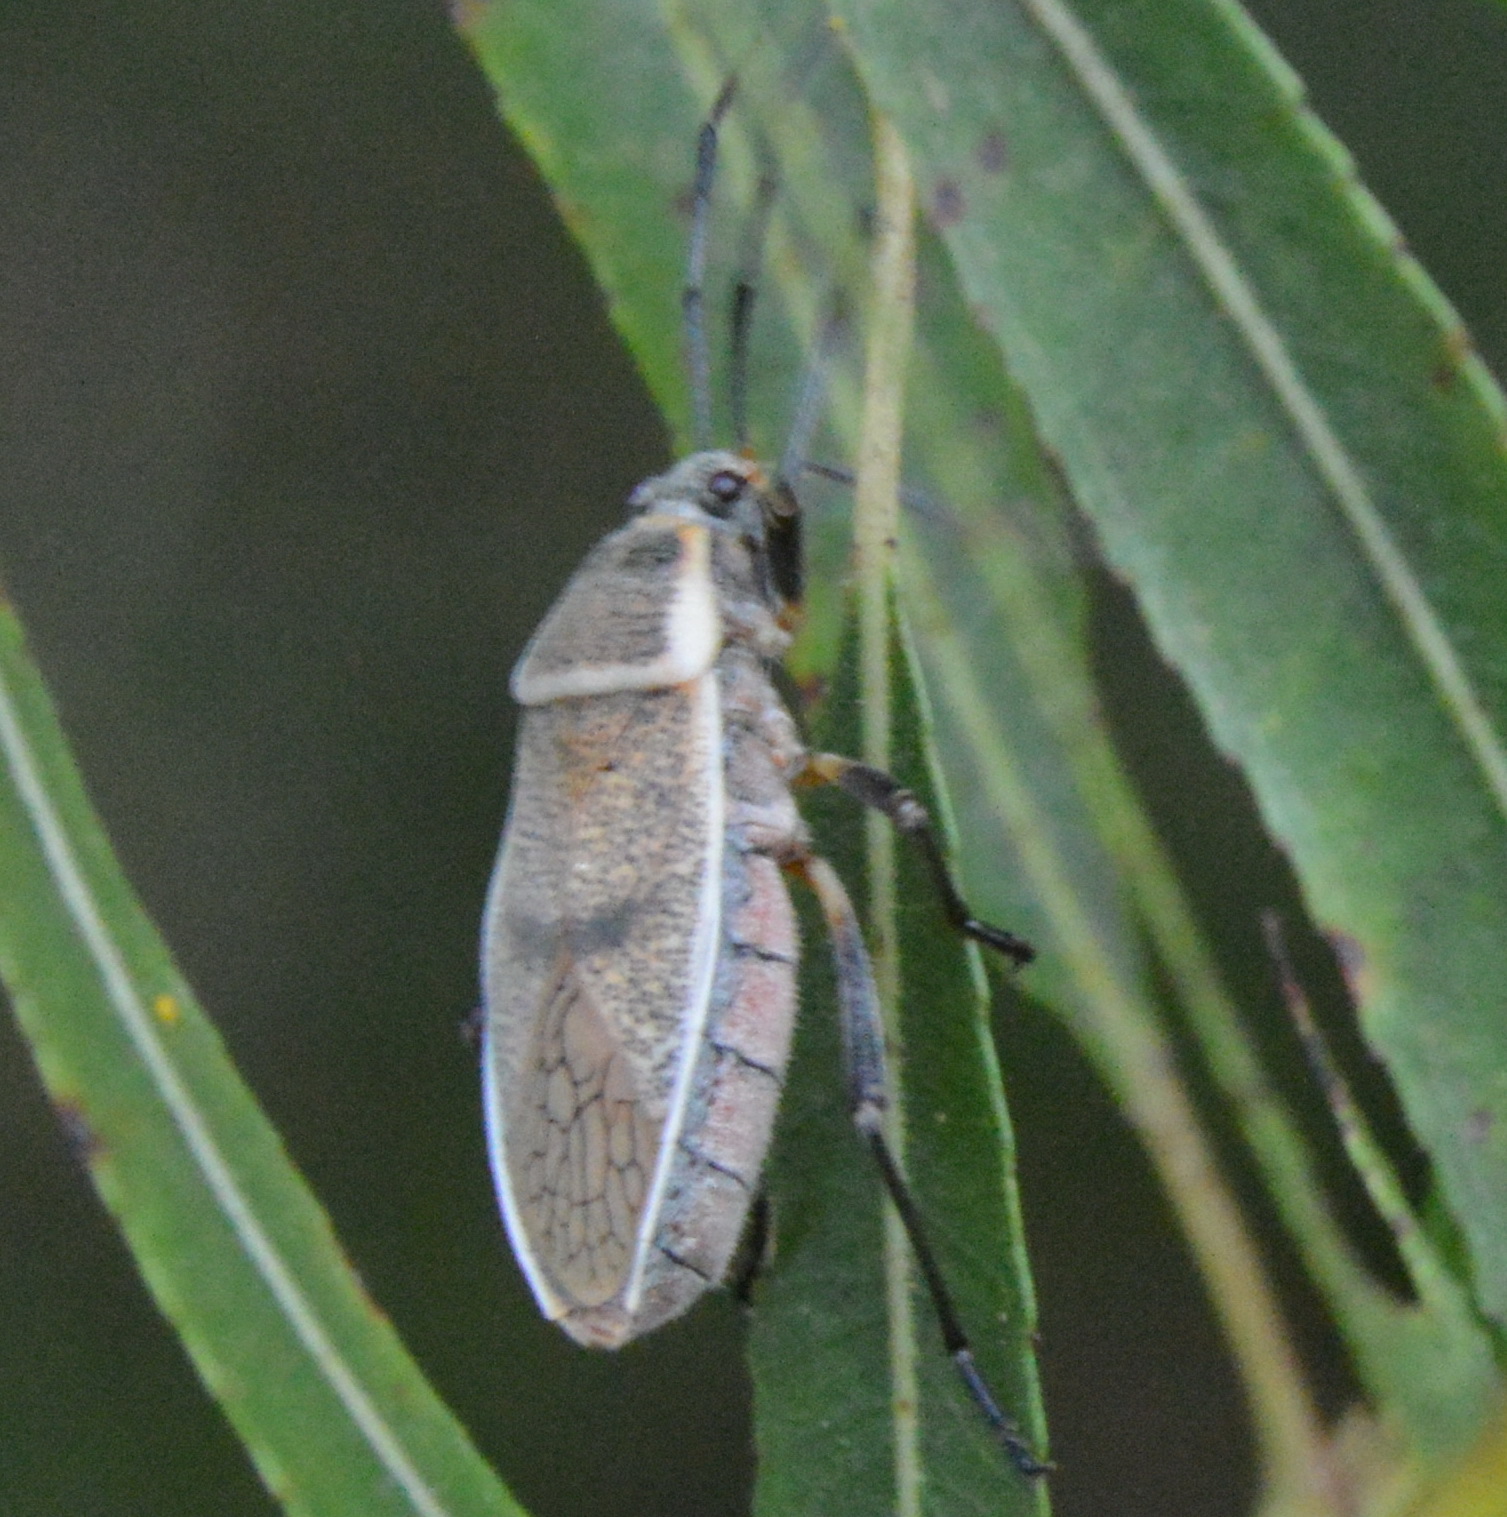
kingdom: Animalia
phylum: Arthropoda
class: Insecta
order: Hemiptera
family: Largidae
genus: Largus
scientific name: Largus maculatus
